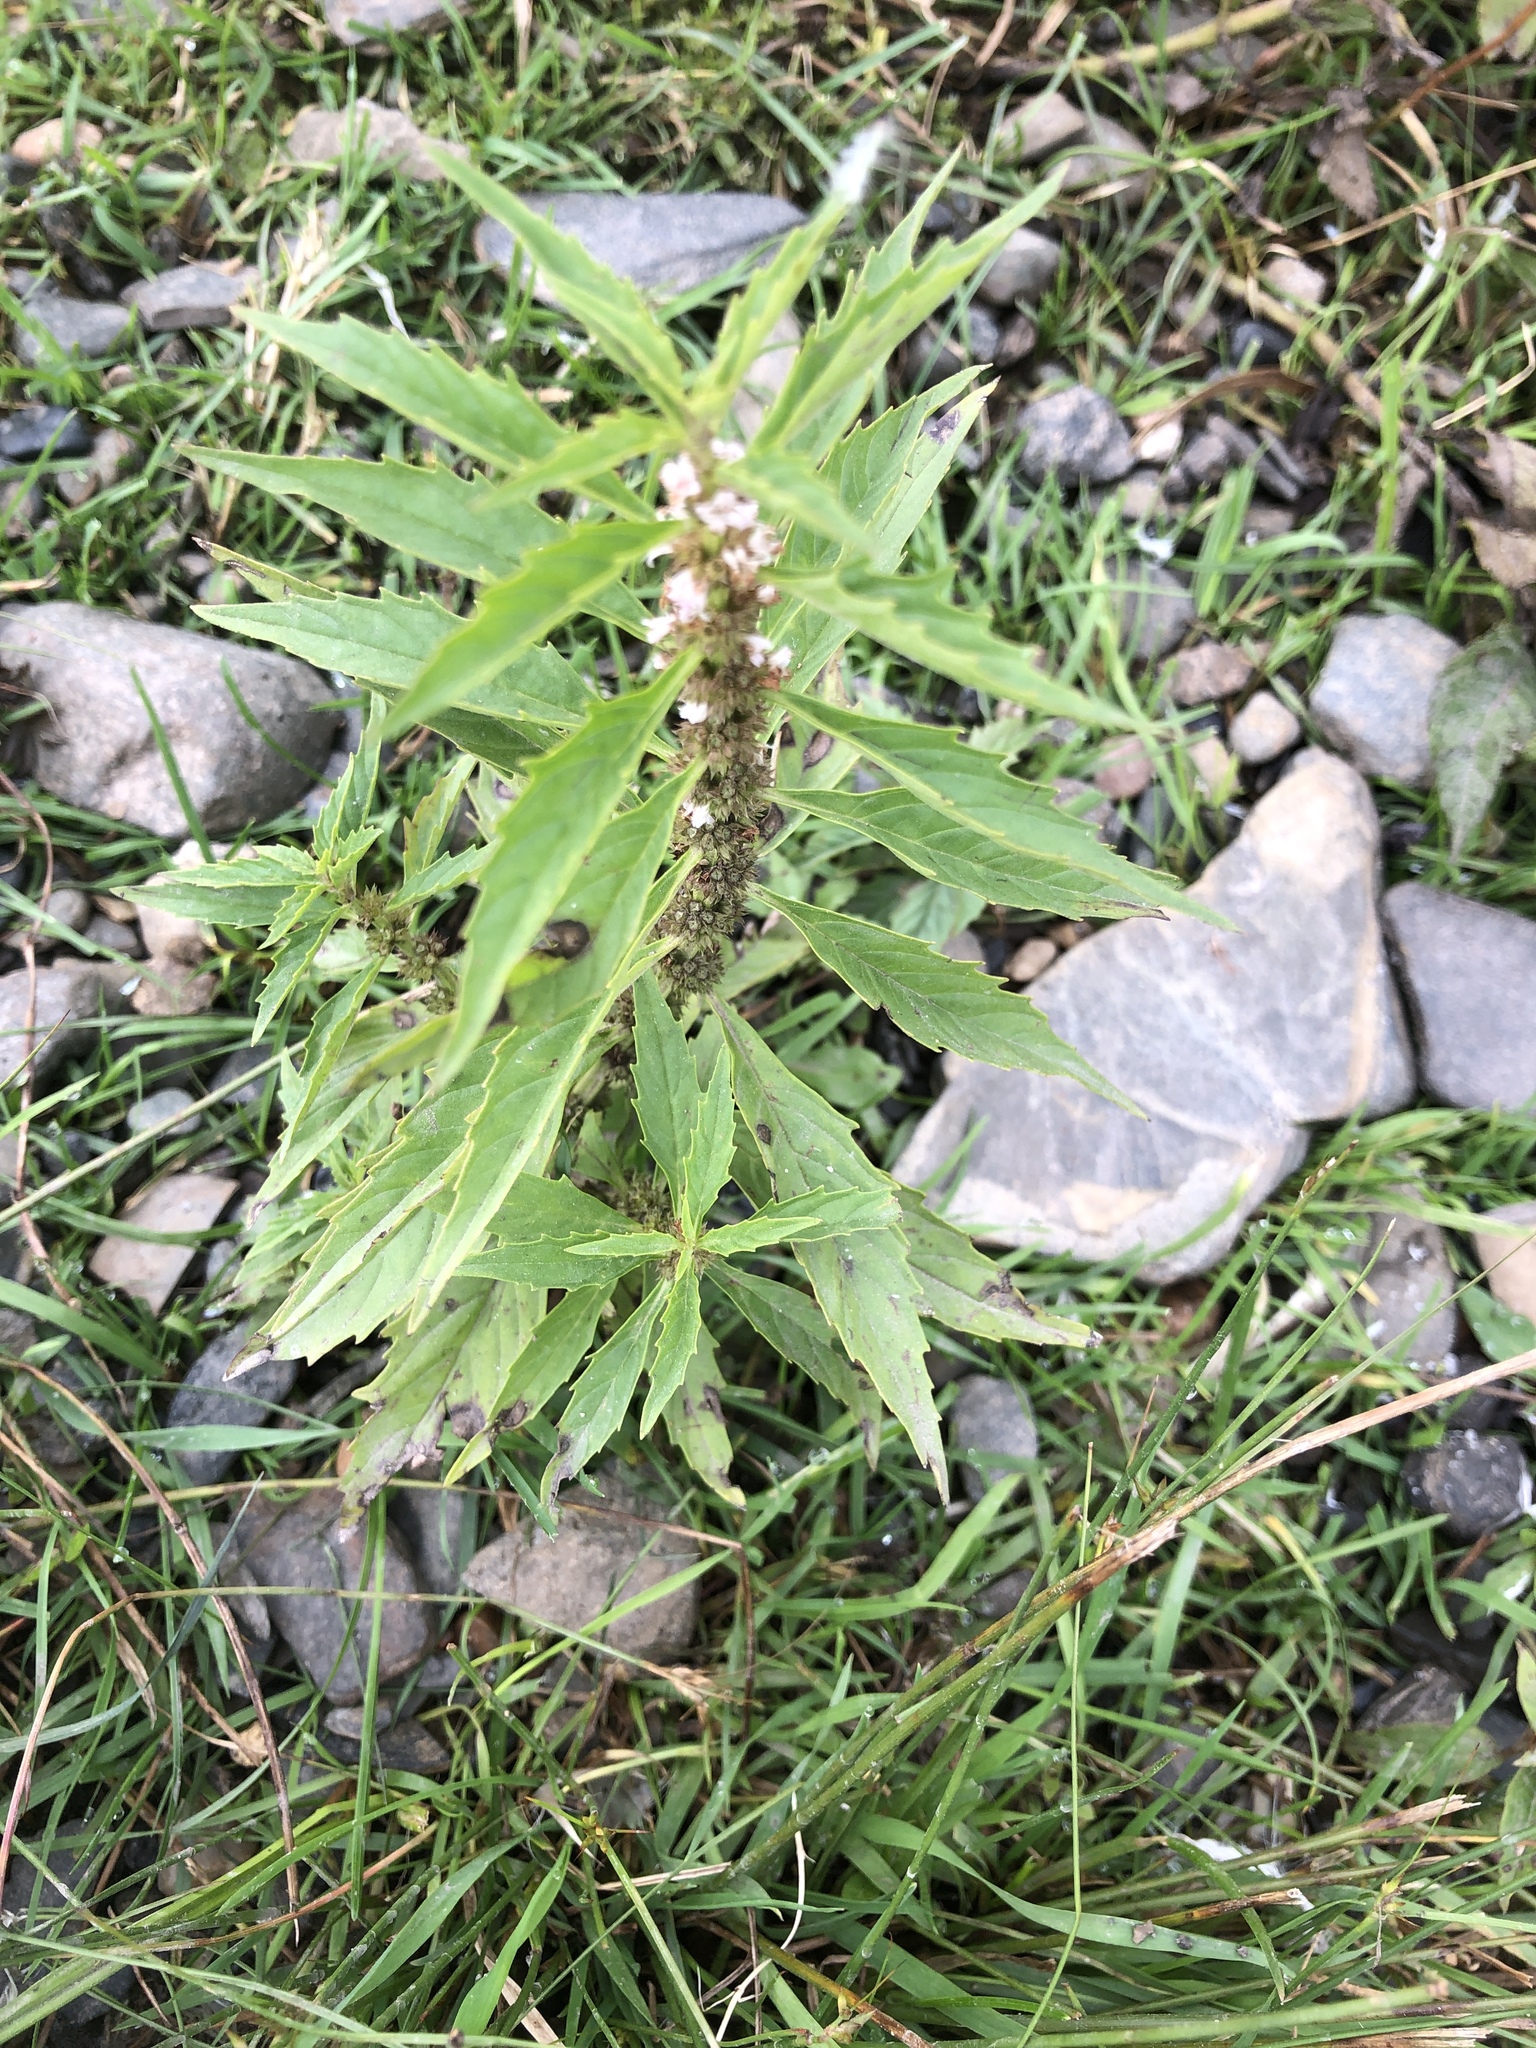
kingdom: Plantae
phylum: Tracheophyta
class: Magnoliopsida
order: Lamiales
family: Lamiaceae
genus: Lycopus
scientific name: Lycopus americanus
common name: American bugleweed
